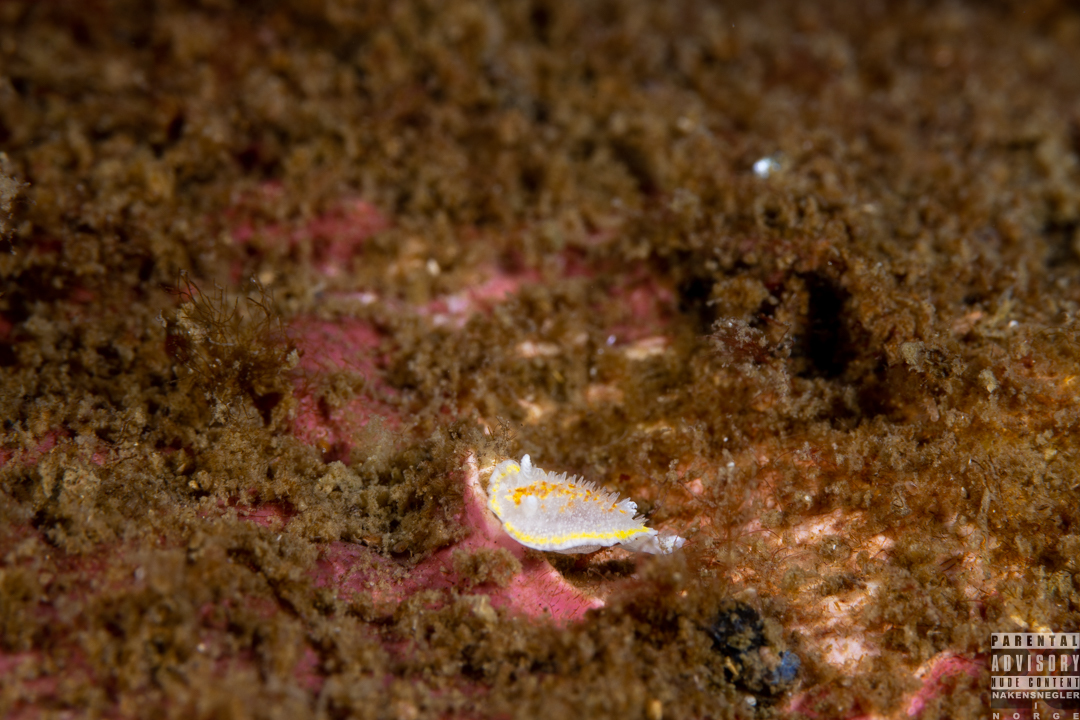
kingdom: Animalia
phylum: Mollusca
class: Gastropoda
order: Nudibranchia
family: Calycidorididae
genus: Diaphorodoris
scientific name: Diaphorodoris luteocincta
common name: Fried egg nudibranch
